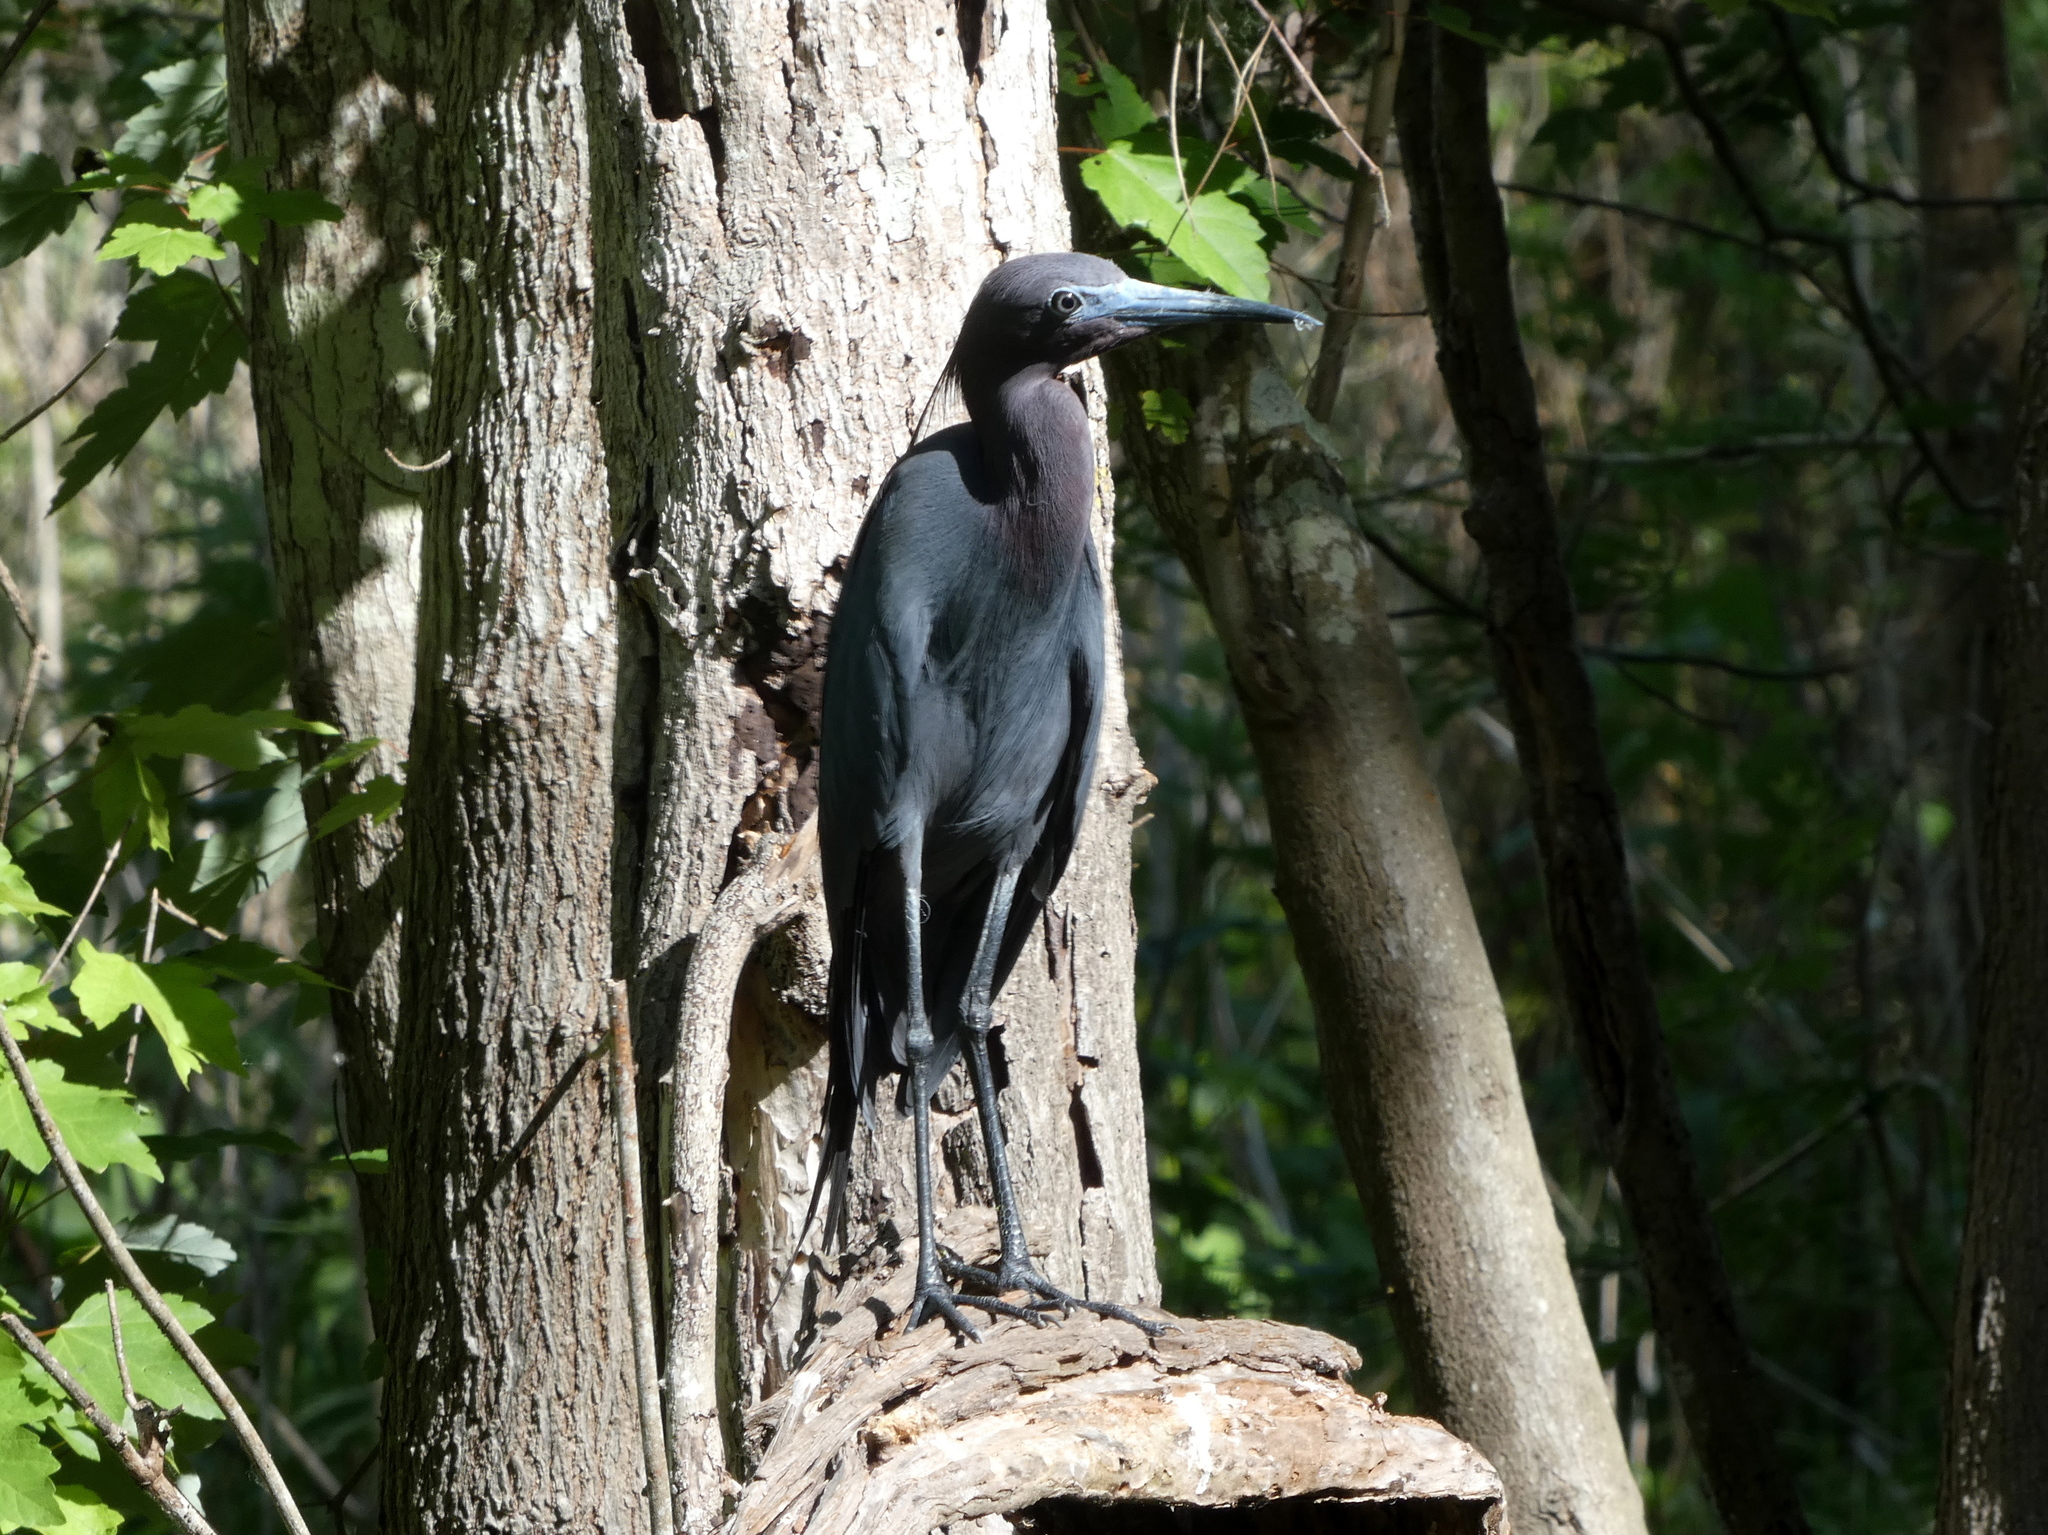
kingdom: Animalia
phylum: Chordata
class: Aves
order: Pelecaniformes
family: Ardeidae
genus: Egretta
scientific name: Egretta caerulea
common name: Little blue heron
